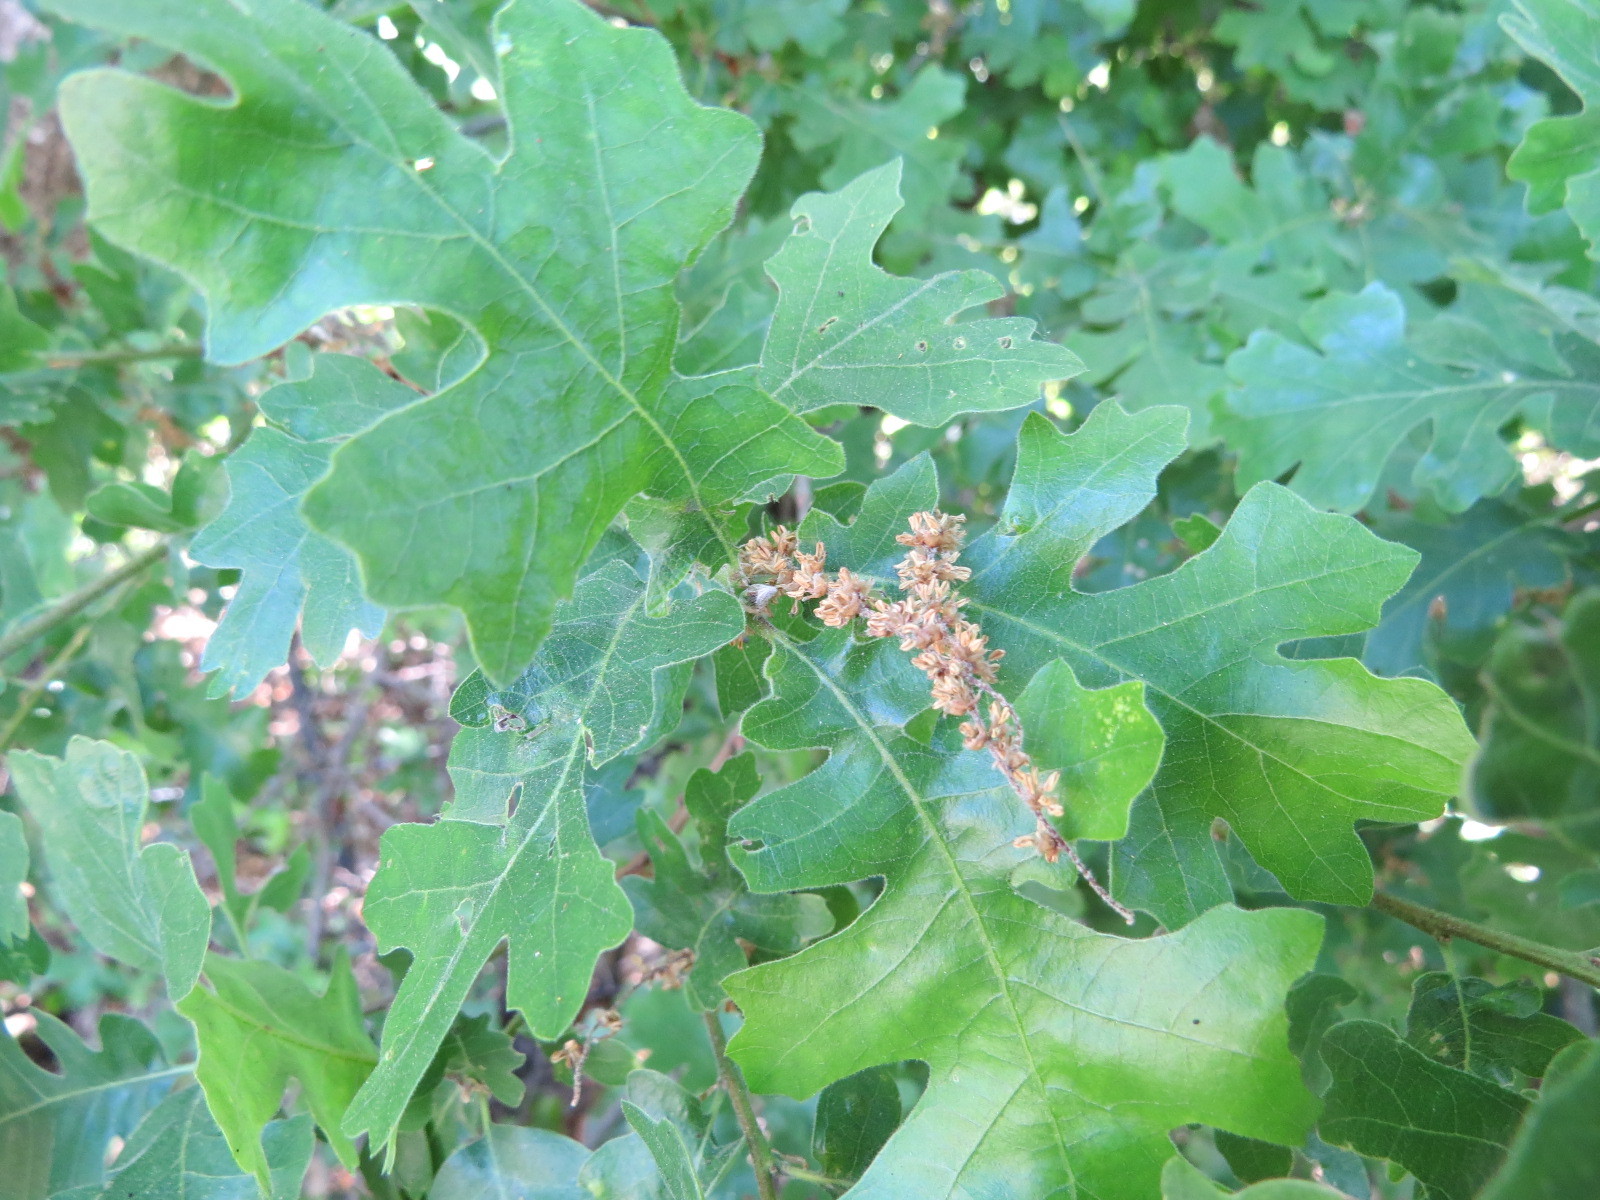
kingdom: Plantae
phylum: Tracheophyta
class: Magnoliopsida
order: Fagales
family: Fagaceae
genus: Quercus
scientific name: Quercus lobata
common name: Valley oak
